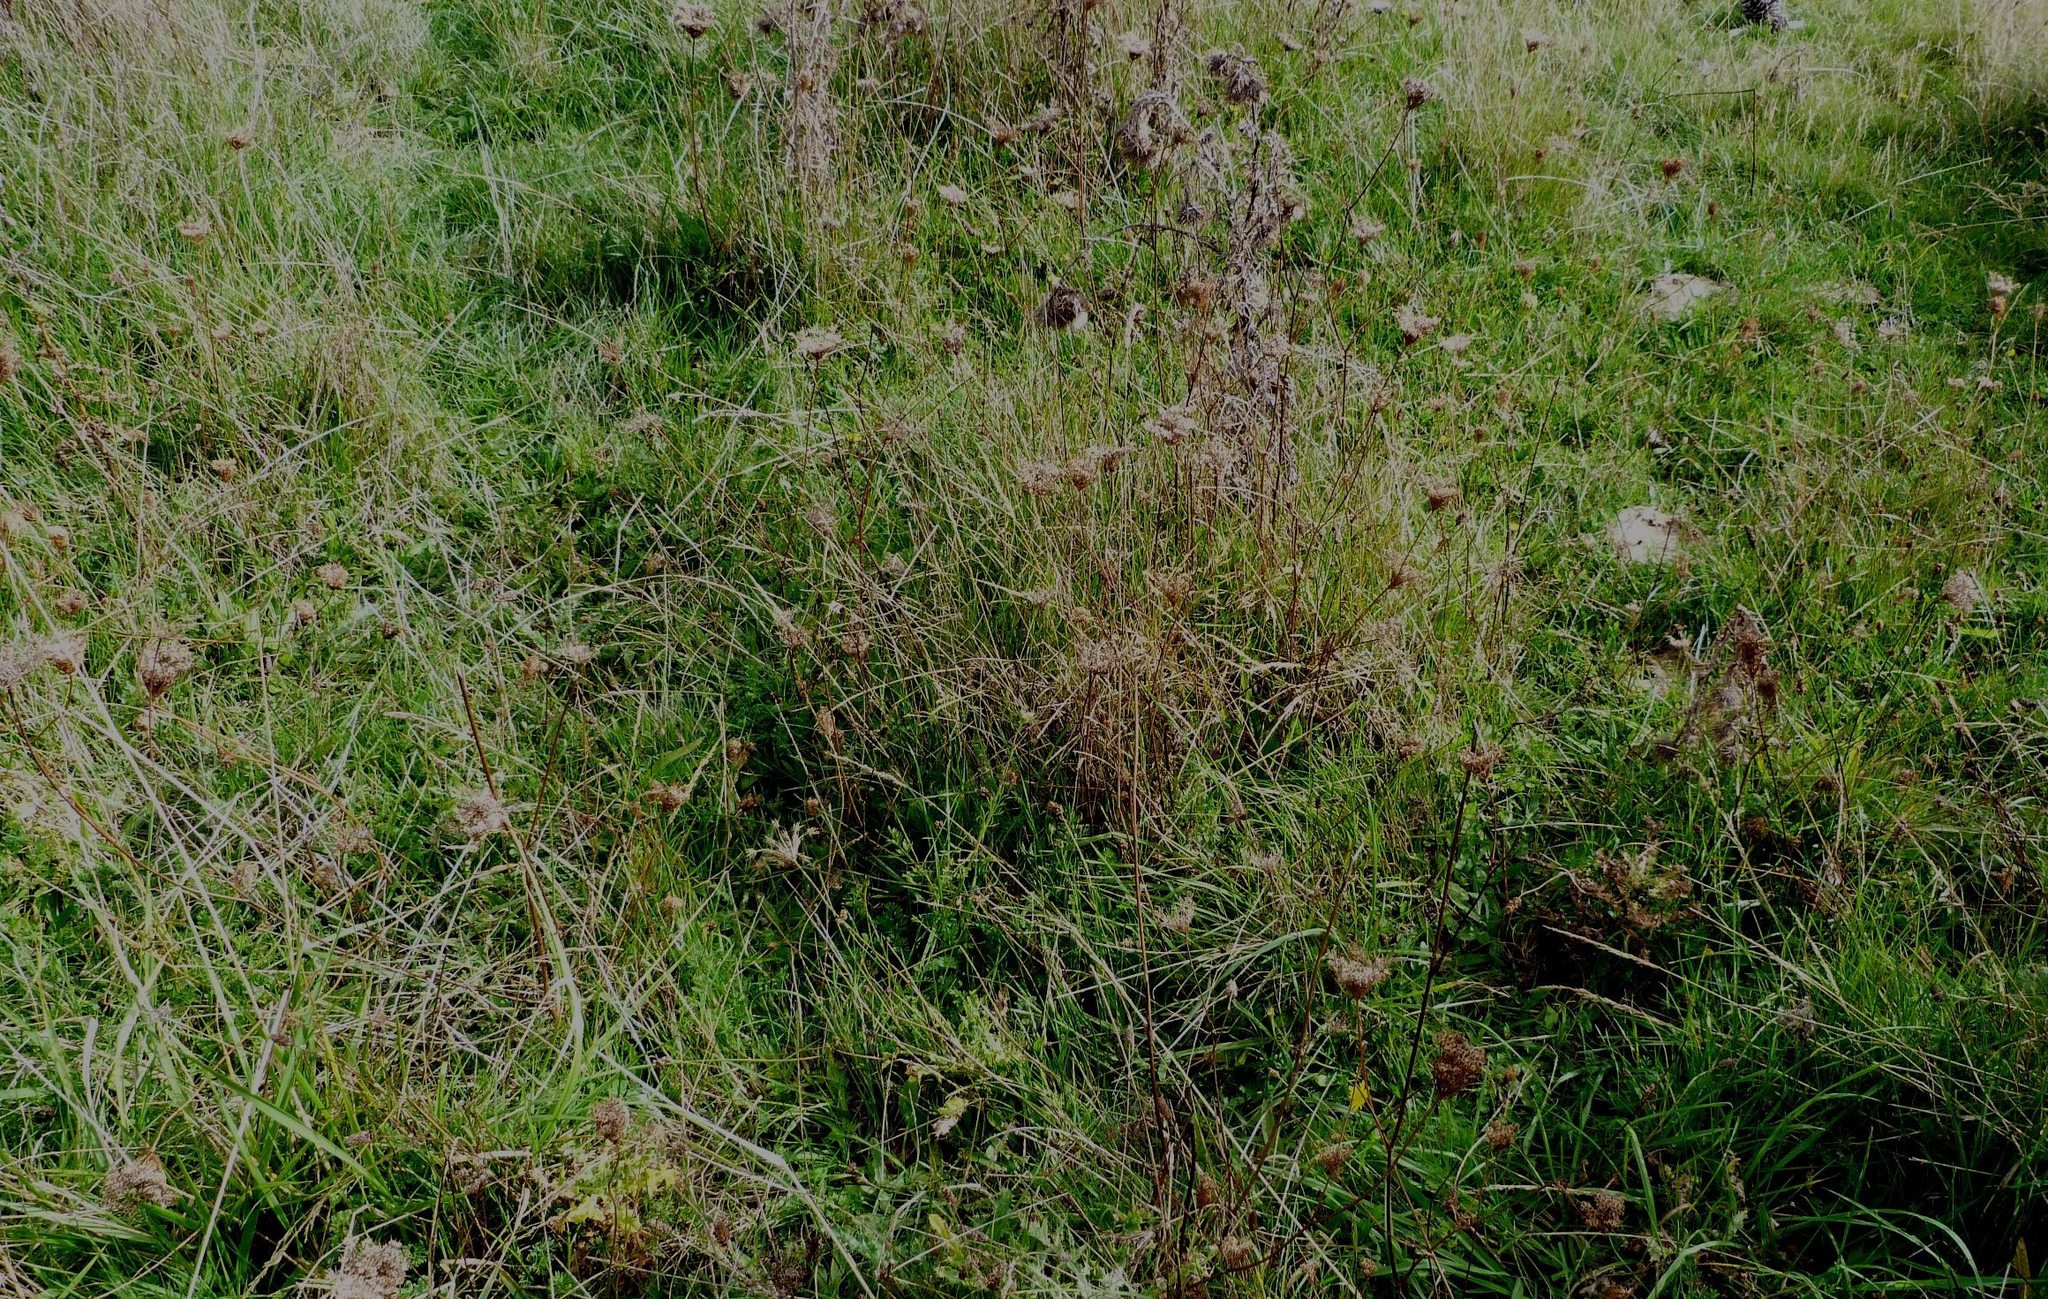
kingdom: Plantae
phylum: Tracheophyta
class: Magnoliopsida
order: Apiales
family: Apiaceae
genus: Daucus
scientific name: Daucus carota
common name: Wild carrot
